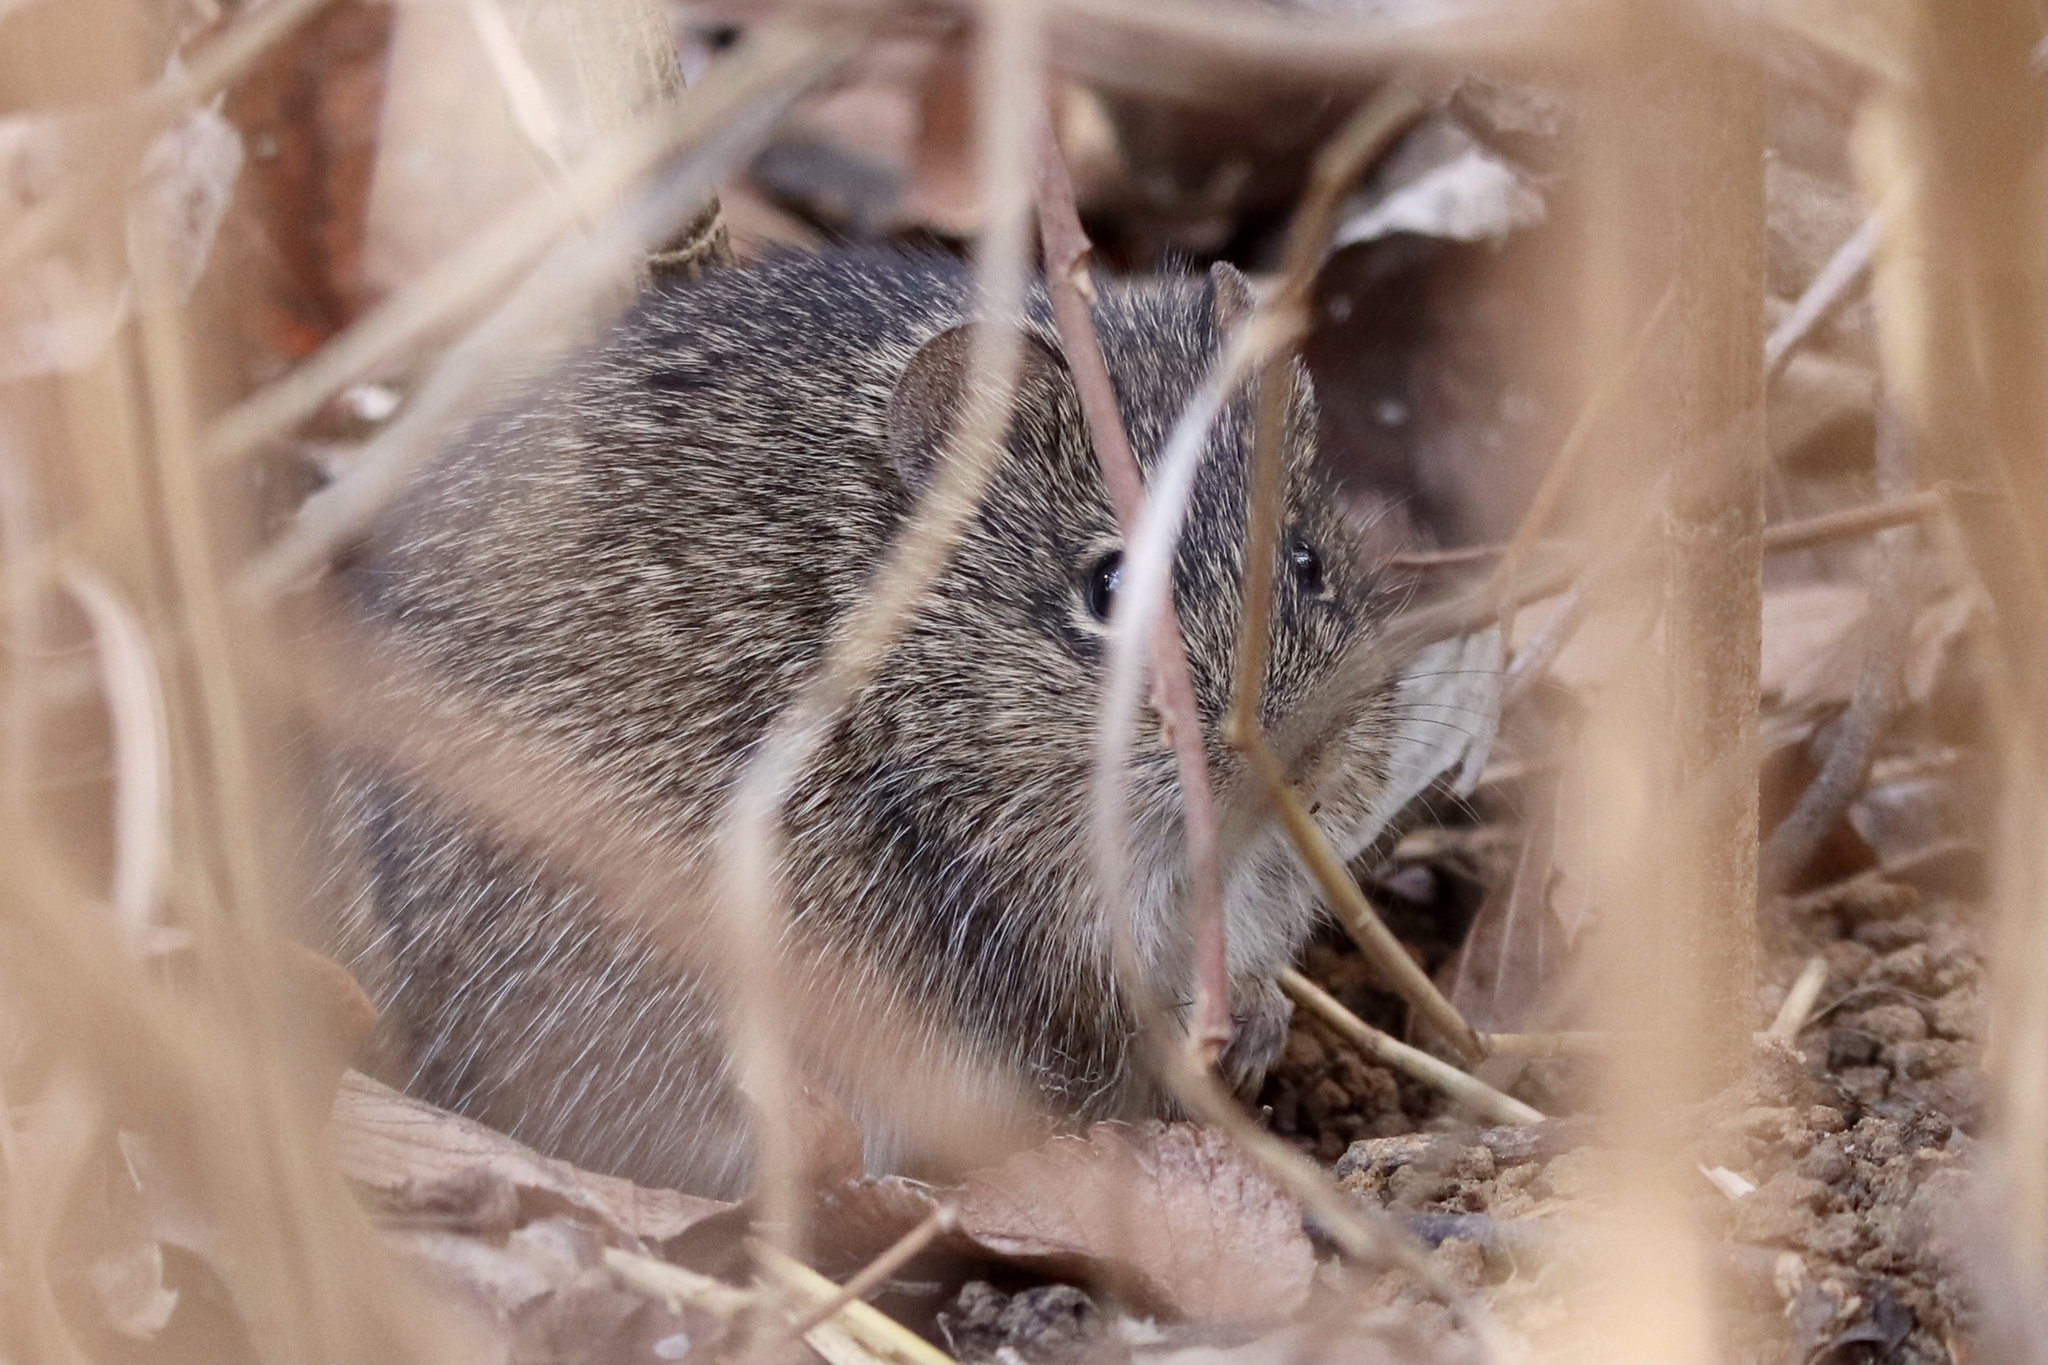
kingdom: Animalia
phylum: Chordata
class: Mammalia
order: Rodentia
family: Cricetidae
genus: Sigmodon
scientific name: Sigmodon hispidus
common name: Hispid cotton rat
